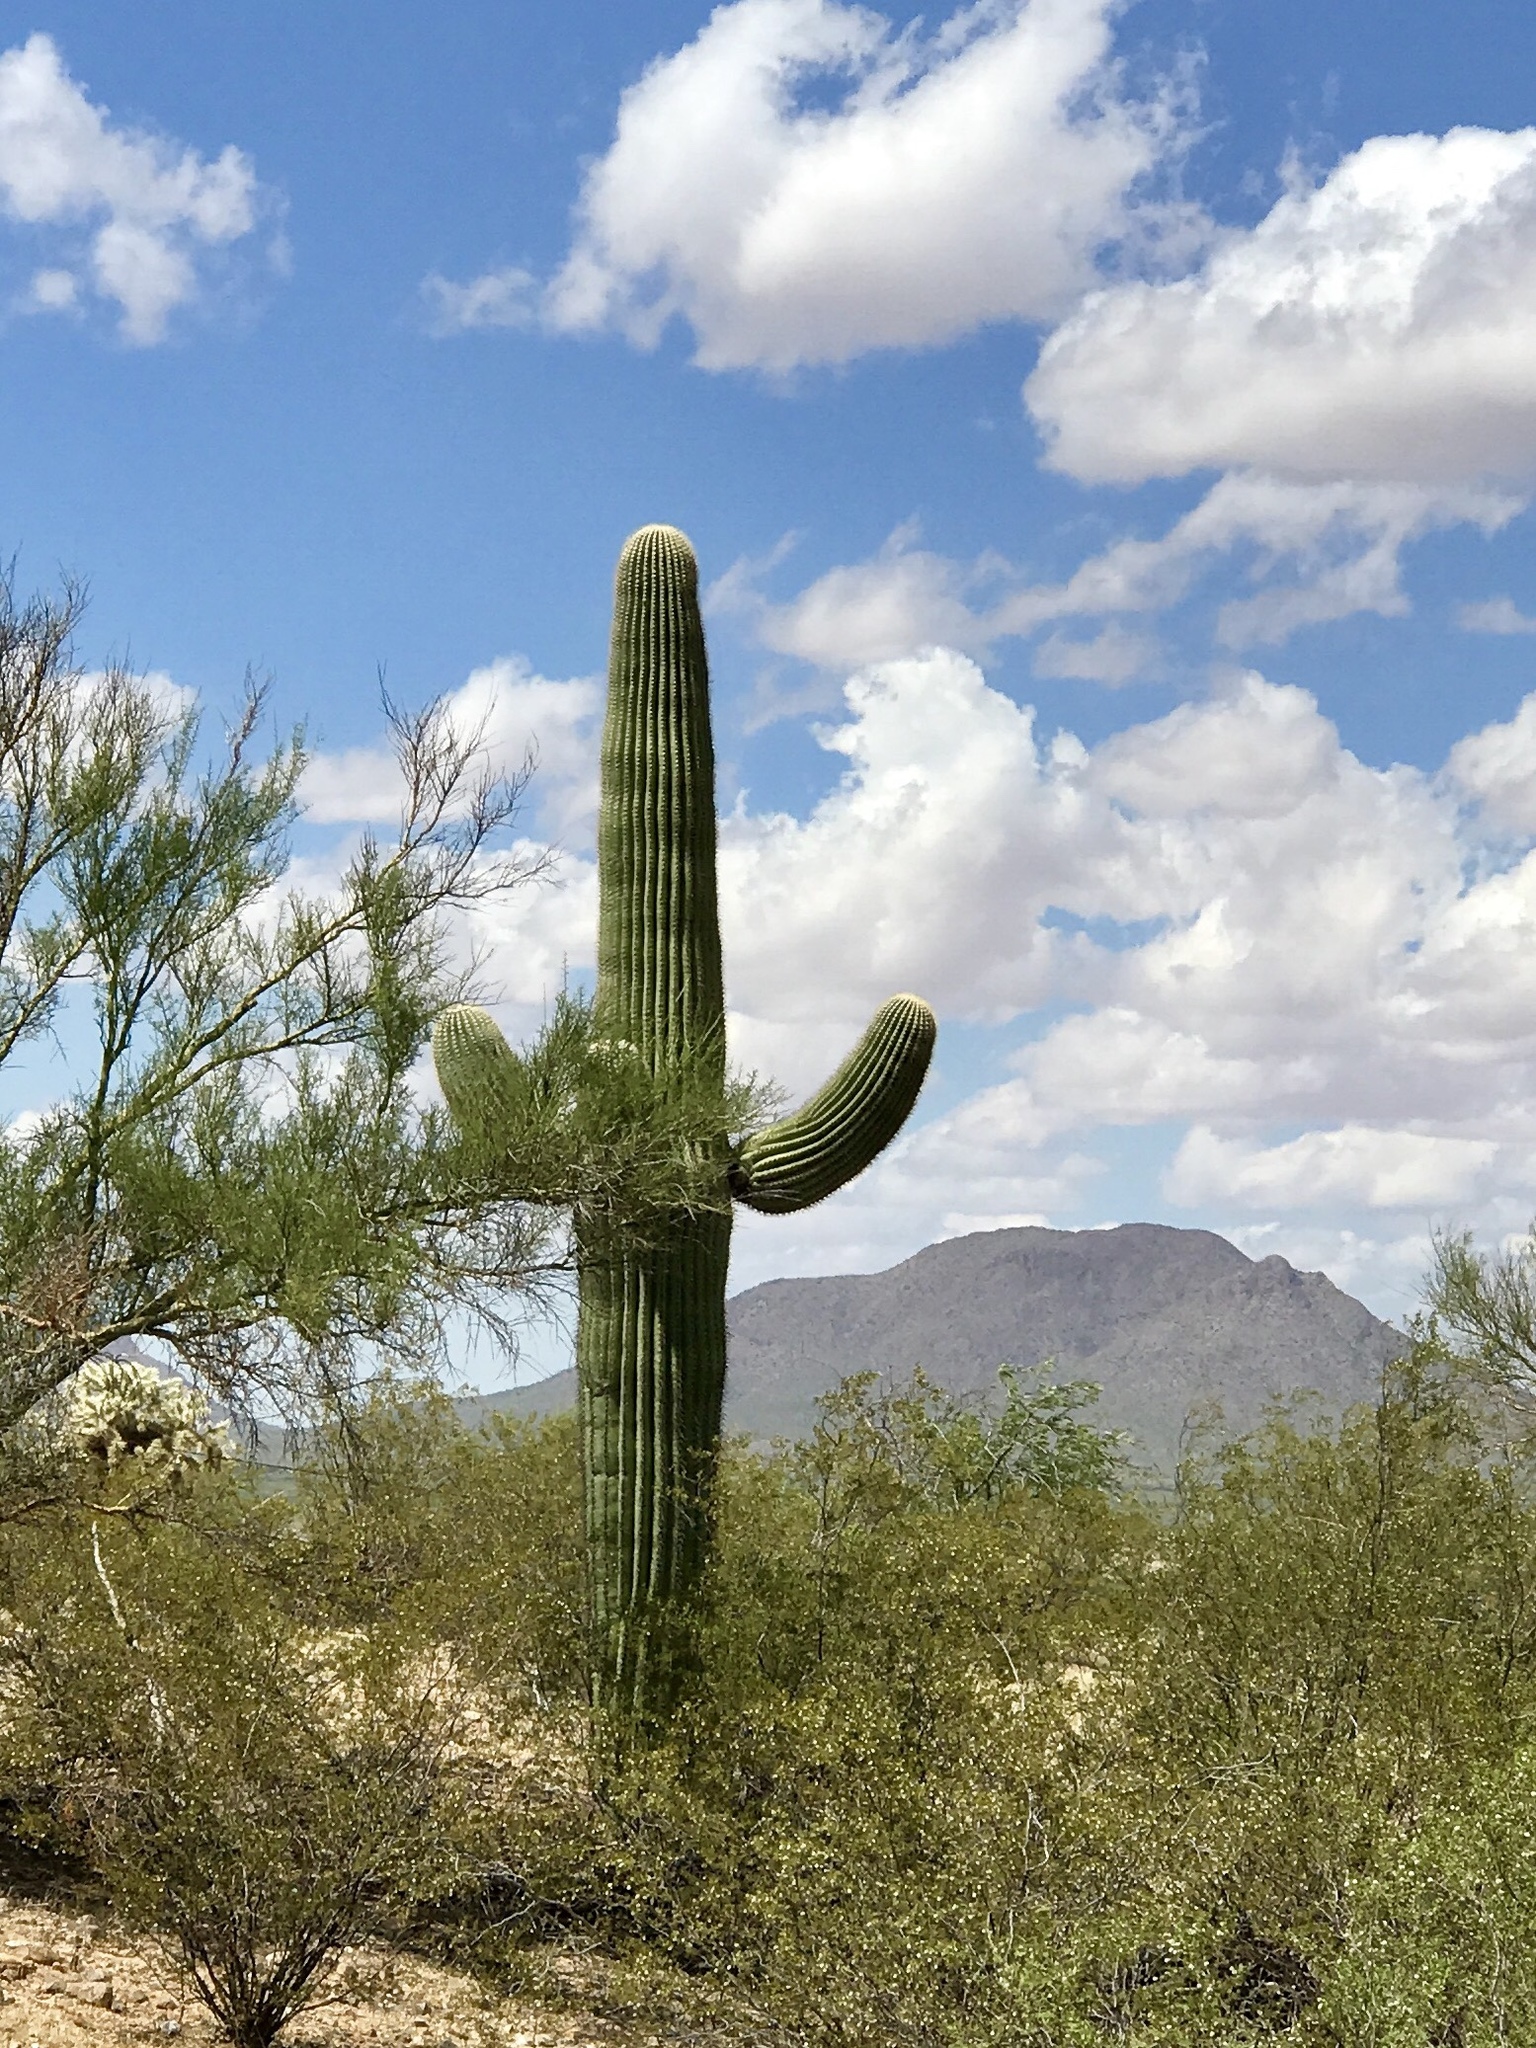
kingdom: Plantae
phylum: Tracheophyta
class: Magnoliopsida
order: Caryophyllales
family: Cactaceae
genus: Carnegiea
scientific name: Carnegiea gigantea
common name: Saguaro
